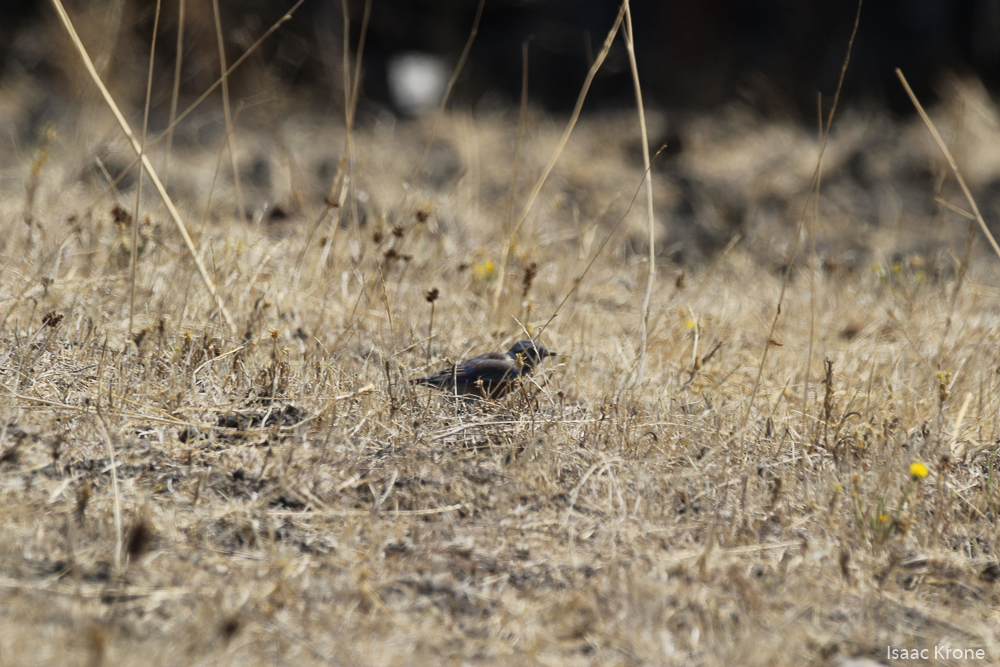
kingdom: Animalia
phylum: Chordata
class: Aves
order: Passeriformes
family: Turdidae
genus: Sialia
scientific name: Sialia mexicana
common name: Western bluebird
